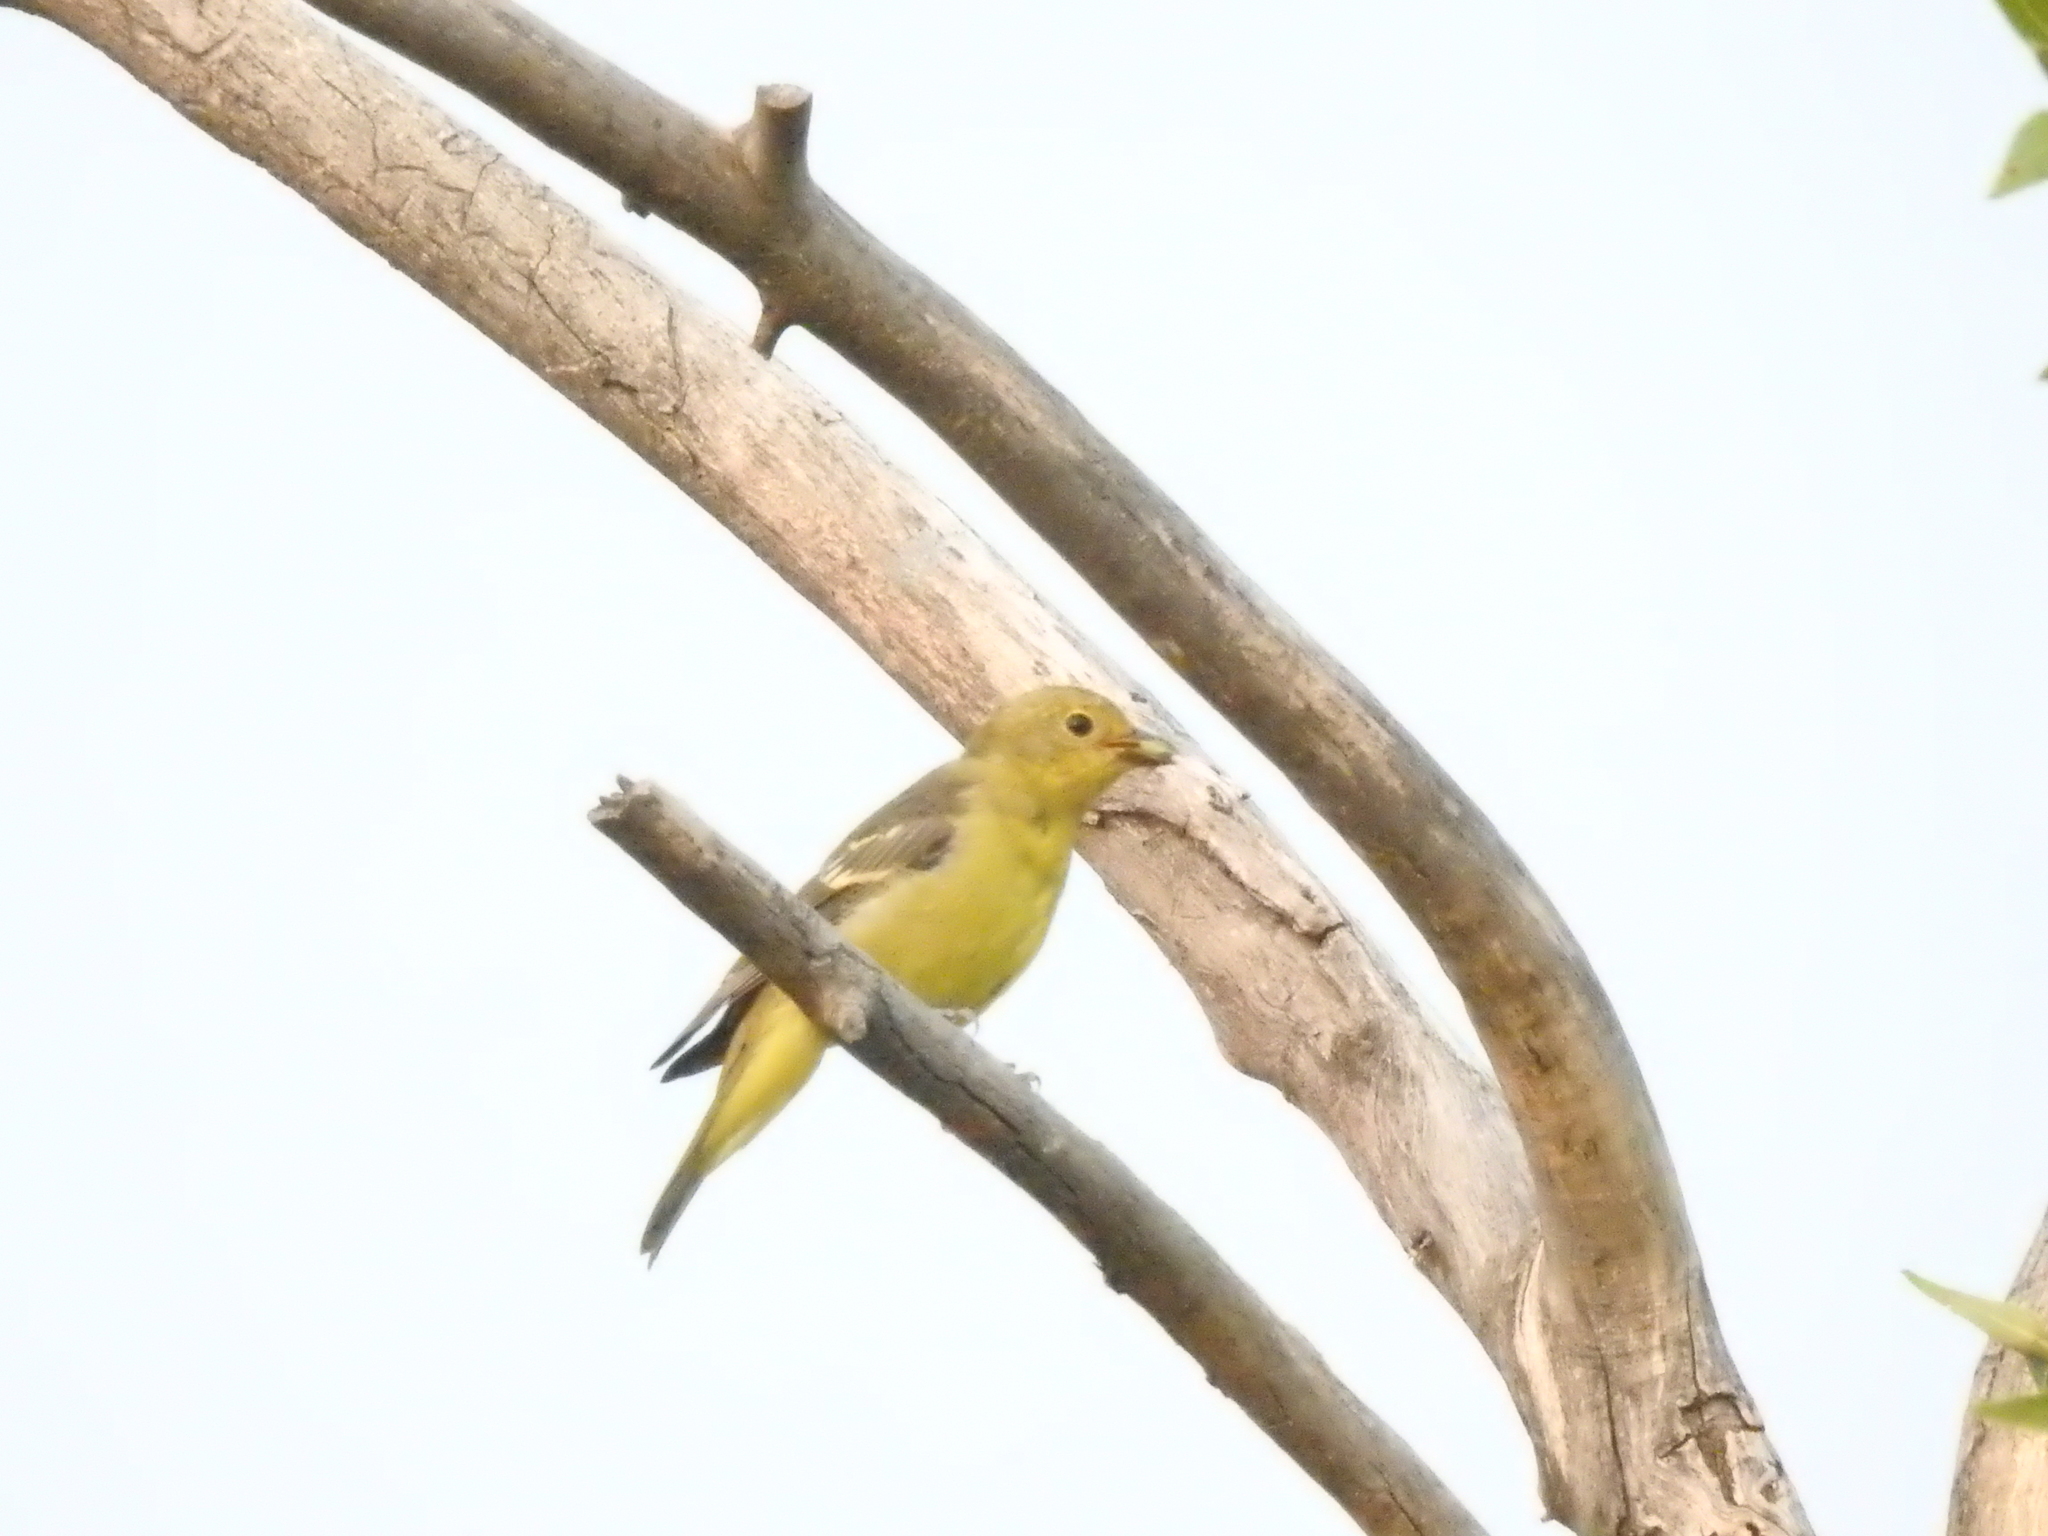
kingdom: Animalia
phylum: Chordata
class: Aves
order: Passeriformes
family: Cardinalidae
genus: Piranga
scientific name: Piranga ludoviciana
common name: Western tanager
